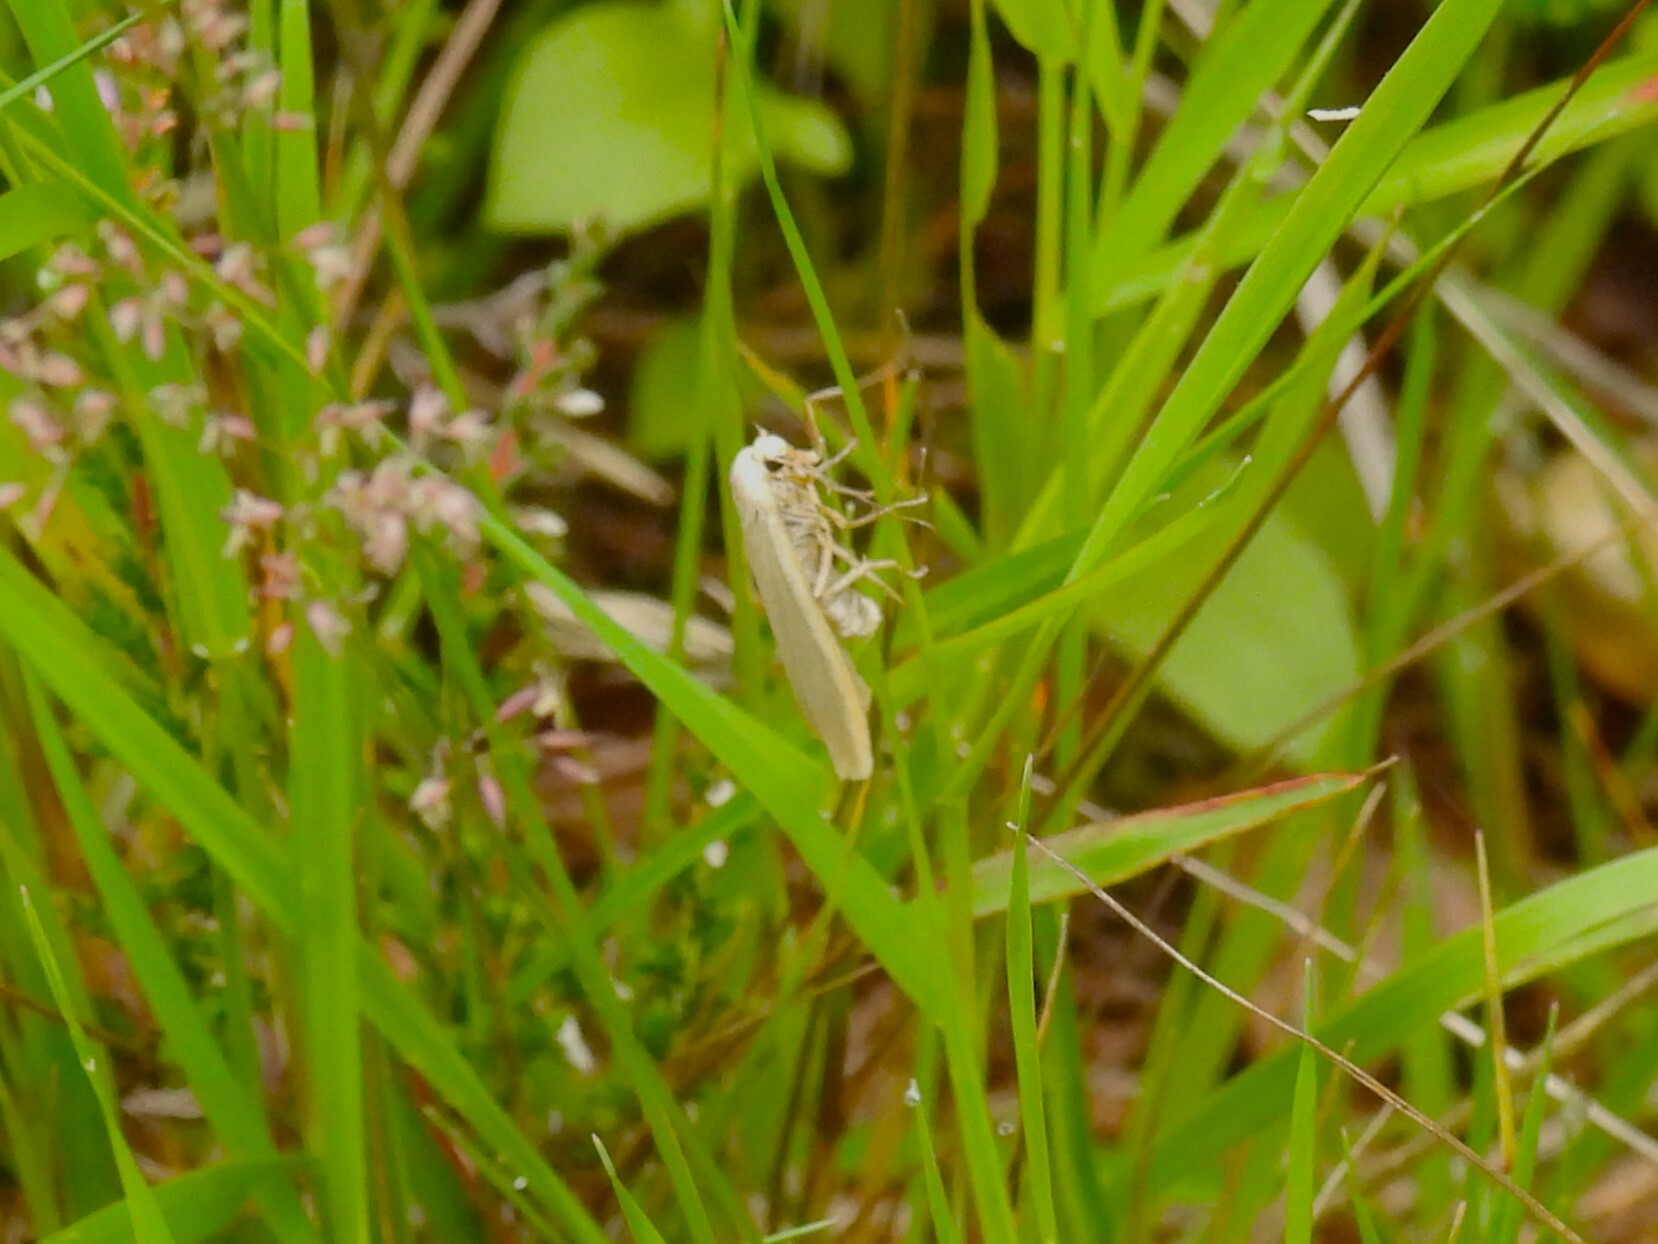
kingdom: Animalia
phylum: Arthropoda
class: Insecta
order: Lepidoptera
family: Erebidae
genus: Manulea
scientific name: Manulea complana
